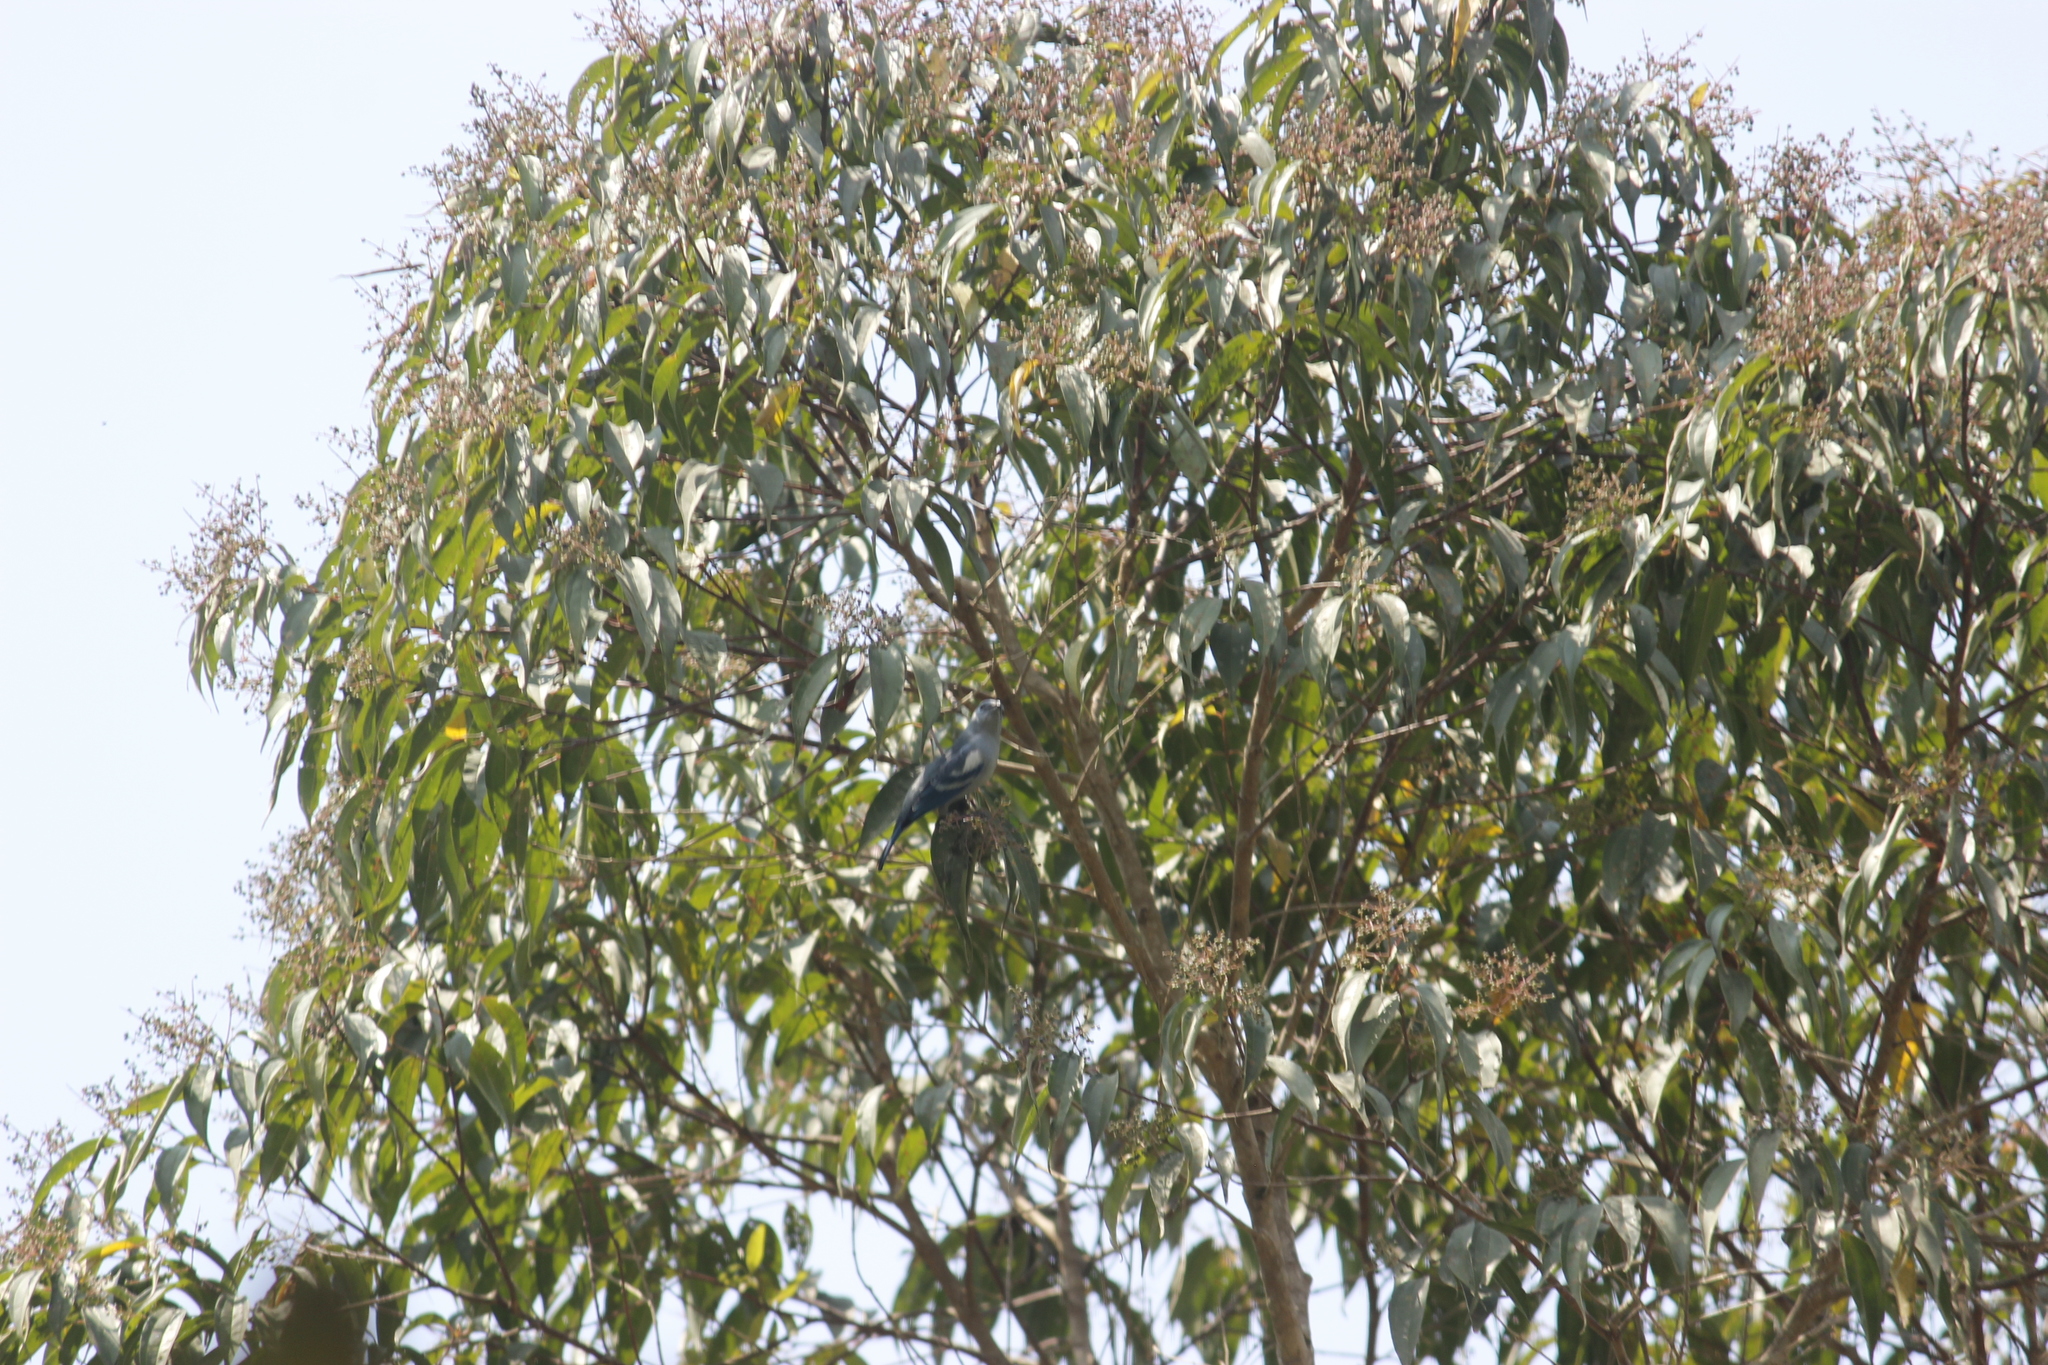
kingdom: Animalia
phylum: Chordata
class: Aves
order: Passeriformes
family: Thraupidae
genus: Thraupis
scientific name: Thraupis episcopus
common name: Blue-grey tanager
